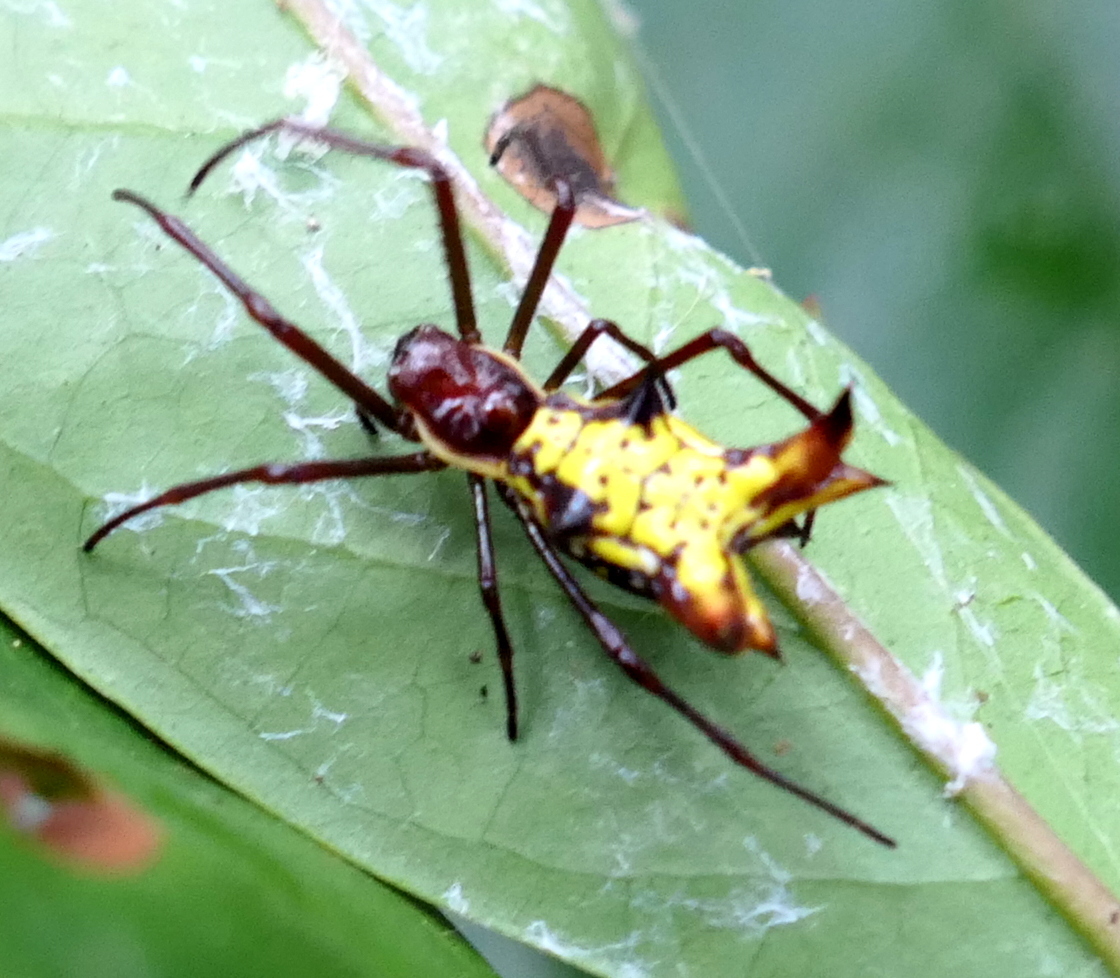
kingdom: Animalia
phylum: Arthropoda
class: Arachnida
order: Araneae
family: Araneidae
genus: Micrathena
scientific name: Micrathena fissispina
